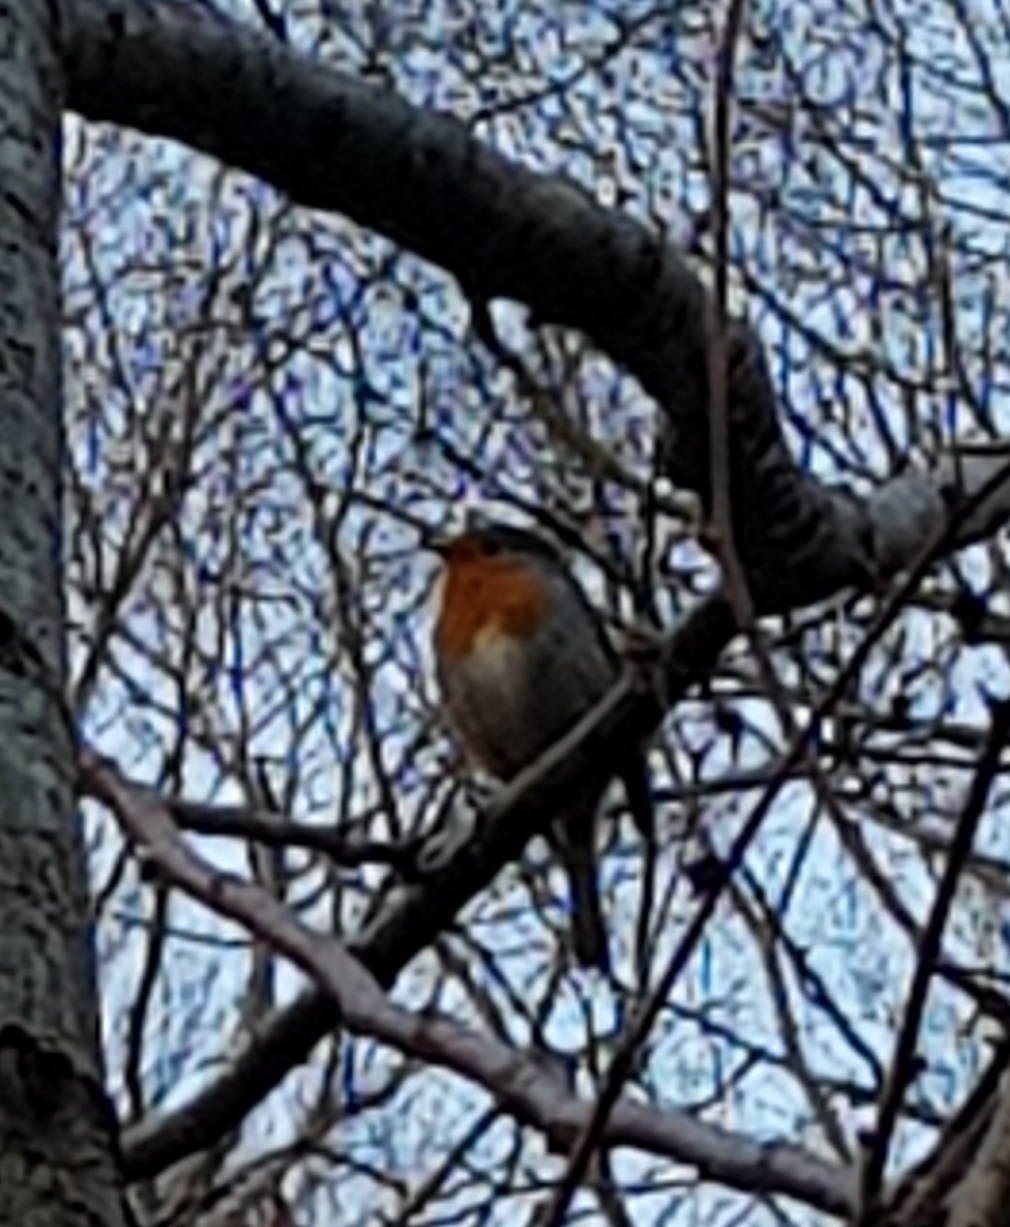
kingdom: Animalia
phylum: Chordata
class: Aves
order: Passeriformes
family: Muscicapidae
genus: Erithacus
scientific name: Erithacus rubecula
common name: European robin
